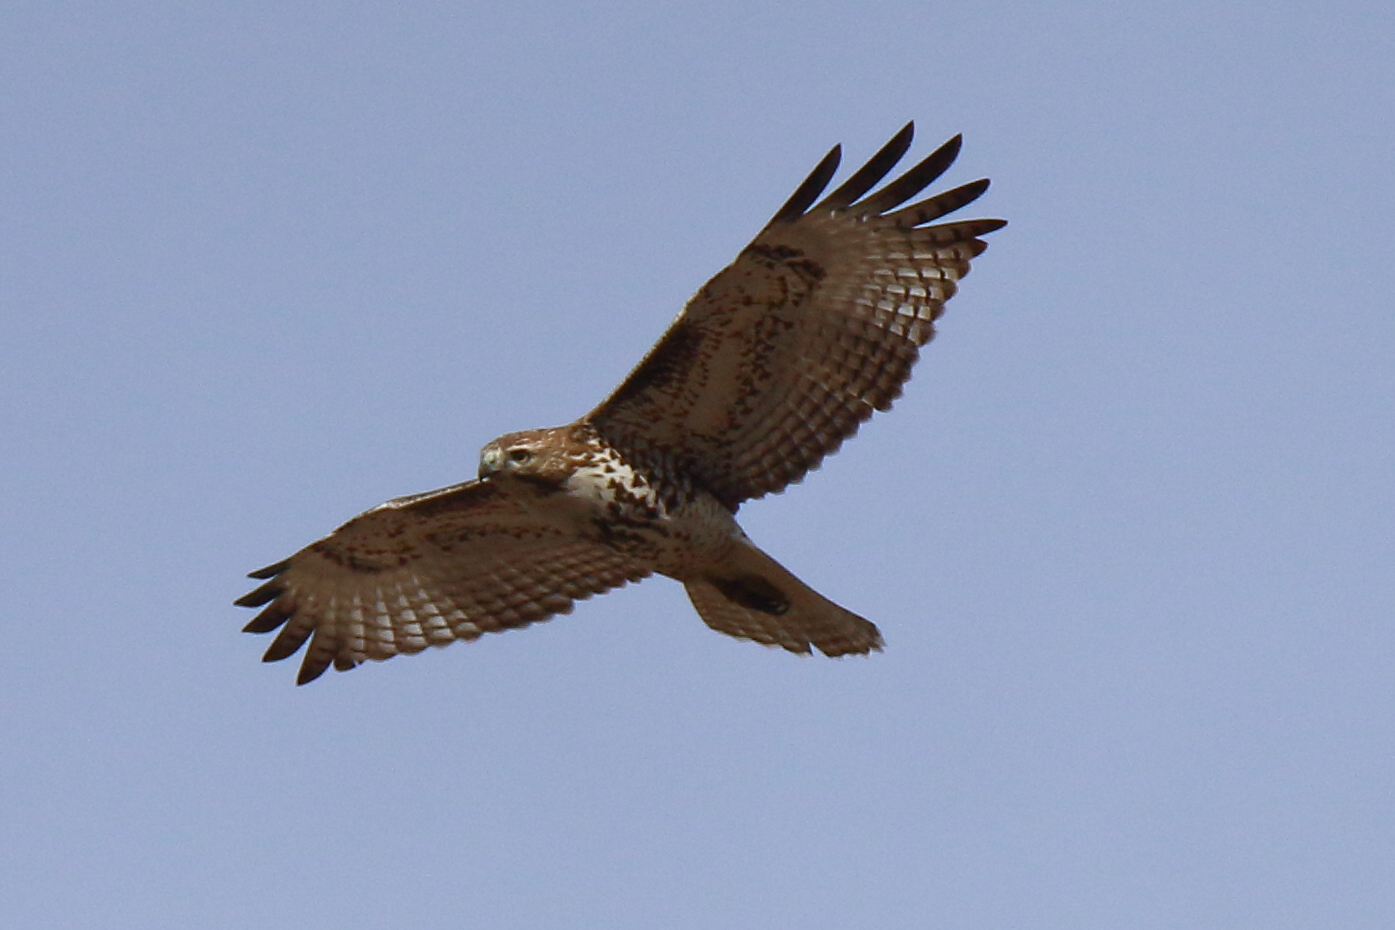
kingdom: Animalia
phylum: Chordata
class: Aves
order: Accipitriformes
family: Accipitridae
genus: Buteo
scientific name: Buteo jamaicensis
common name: Red-tailed hawk
